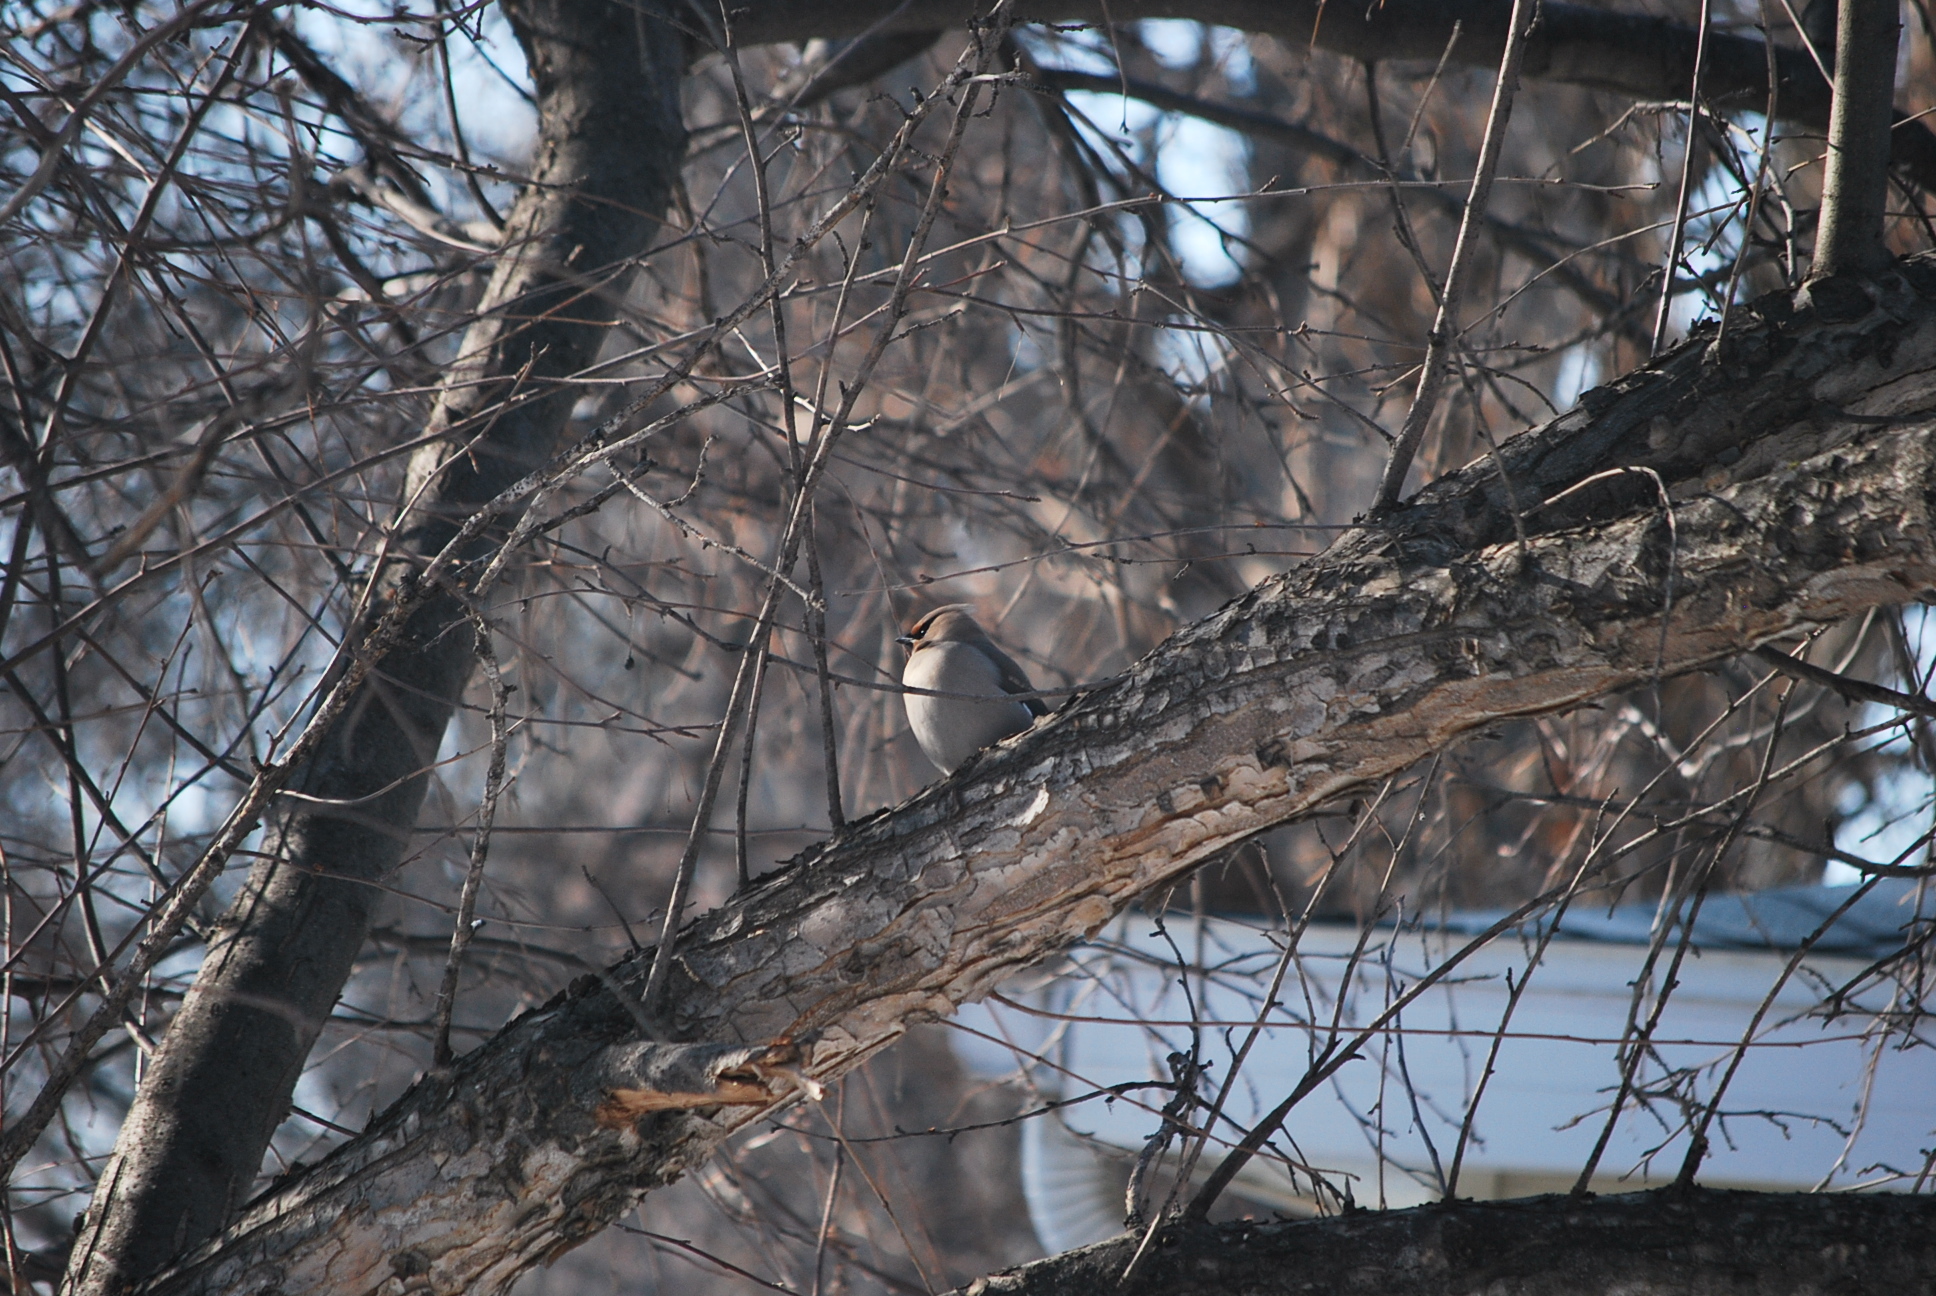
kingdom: Animalia
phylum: Chordata
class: Aves
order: Passeriformes
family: Bombycillidae
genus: Bombycilla
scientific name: Bombycilla garrulus
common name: Bohemian waxwing
